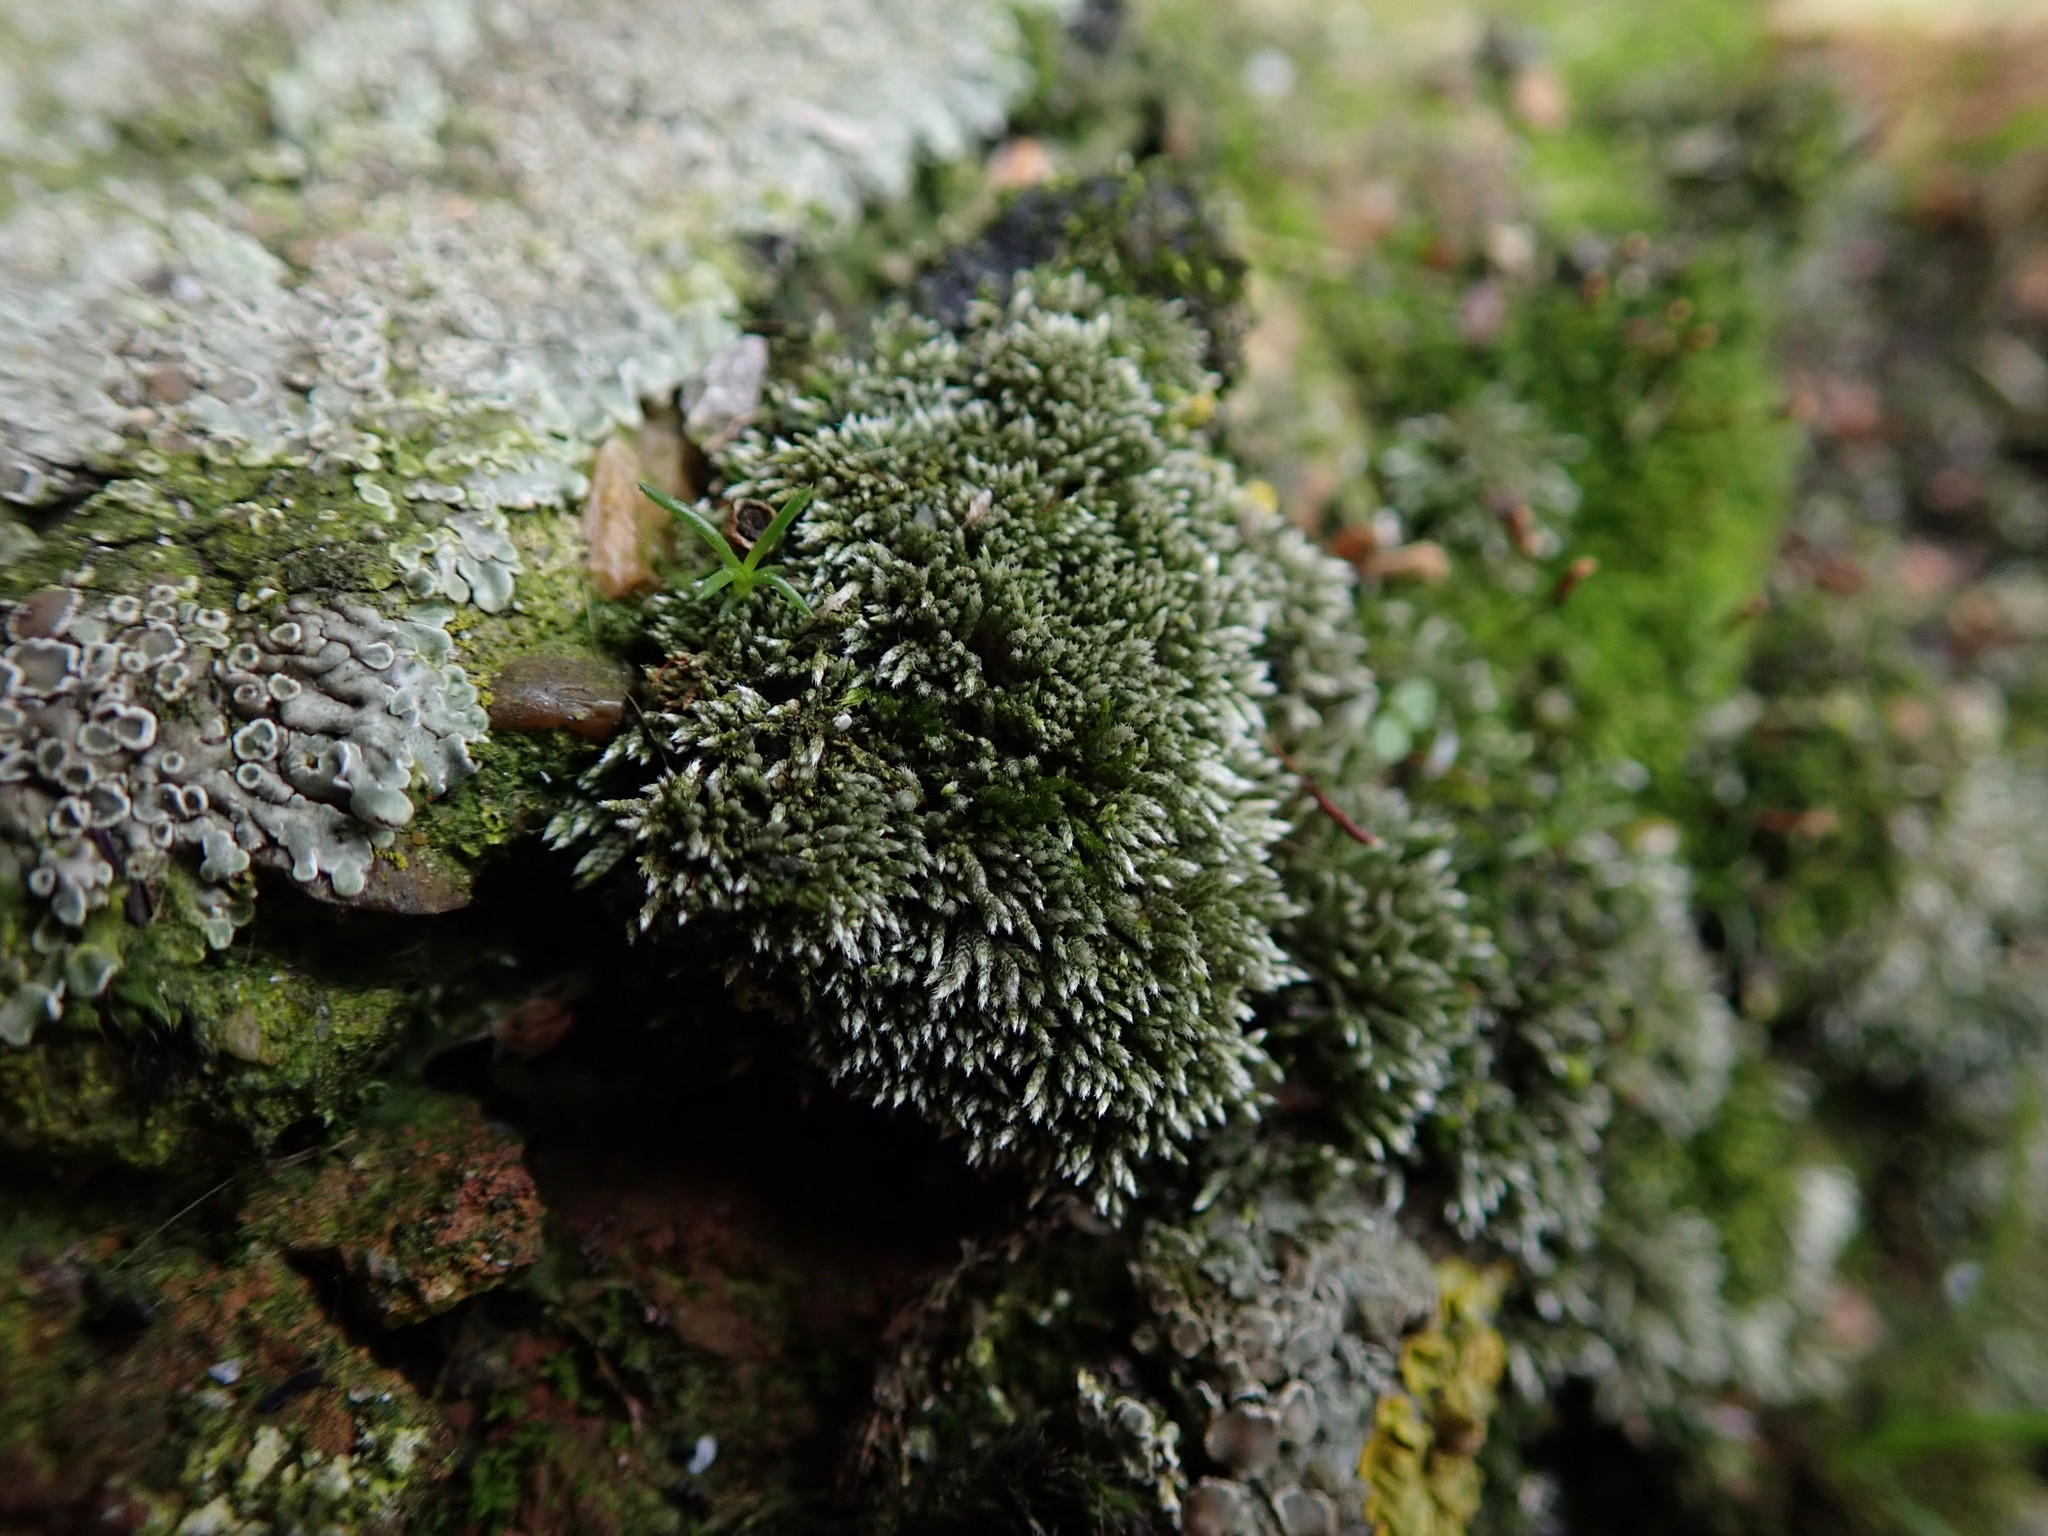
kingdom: Plantae
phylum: Bryophyta
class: Bryopsida
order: Bryales
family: Bryaceae
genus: Bryum
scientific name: Bryum argenteum
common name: Silver-moss
